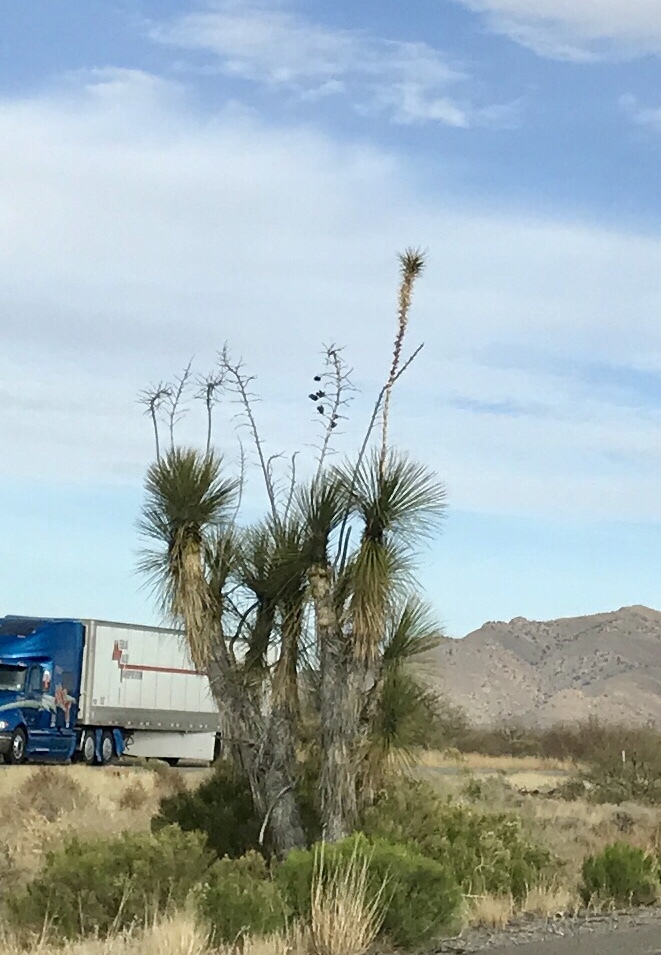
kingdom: Plantae
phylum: Tracheophyta
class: Liliopsida
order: Asparagales
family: Asparagaceae
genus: Yucca
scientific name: Yucca elata
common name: Palmella
